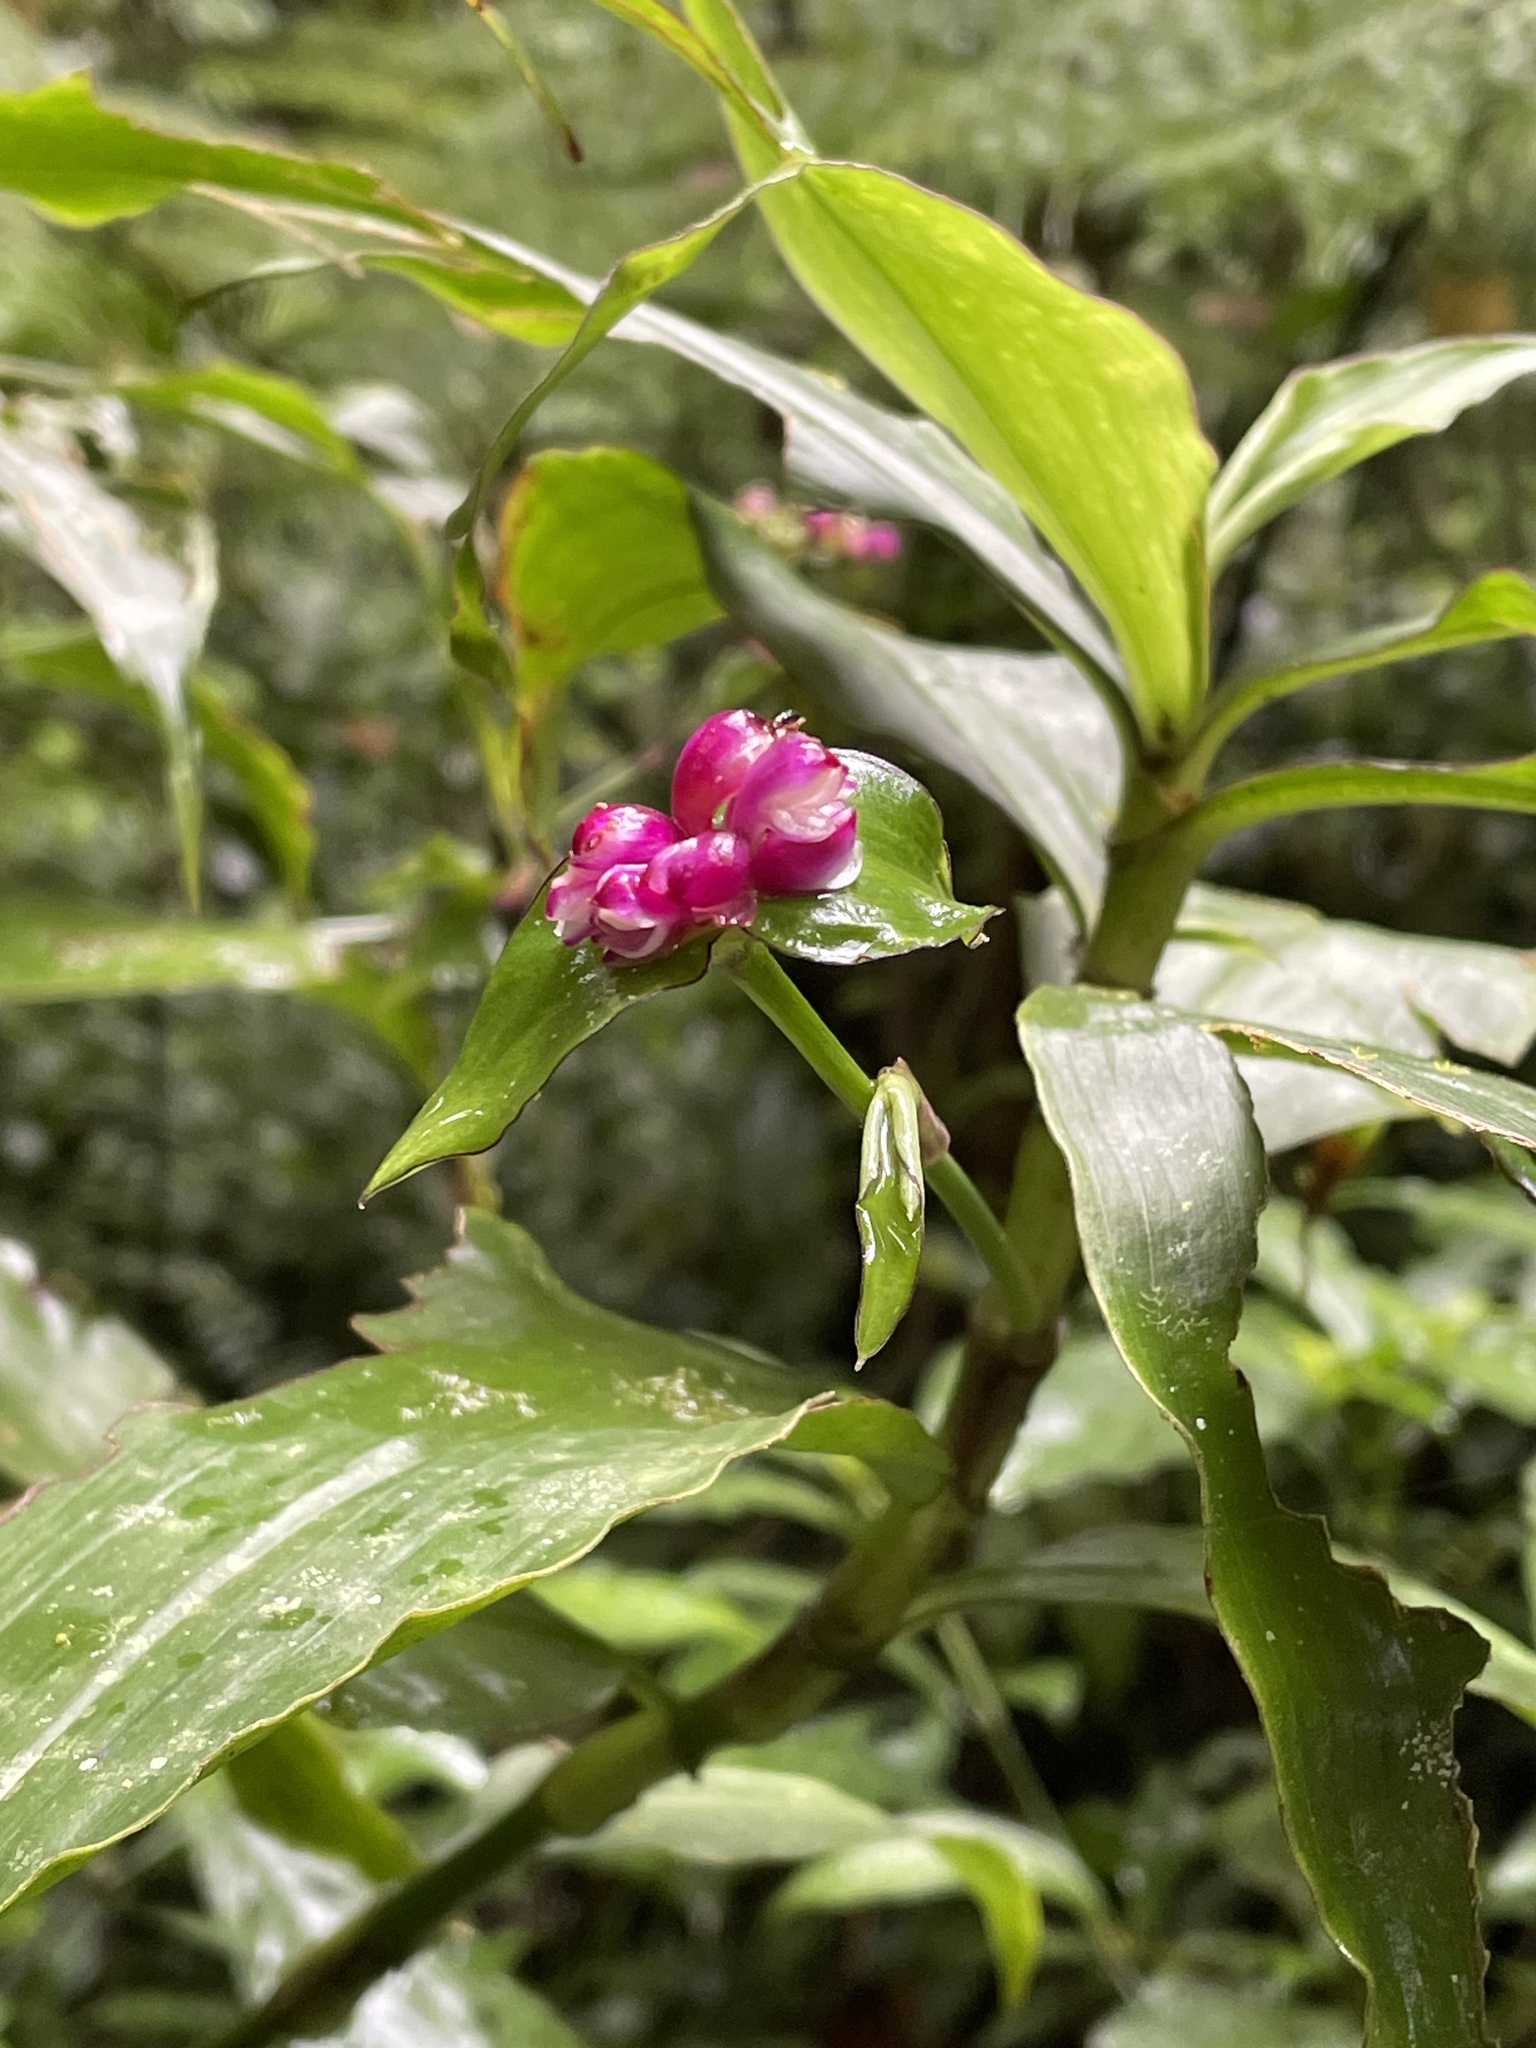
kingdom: Plantae
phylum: Tracheophyta
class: Liliopsida
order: Commelinales
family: Commelinaceae
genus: Tradescantia
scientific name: Tradescantia zanonia
